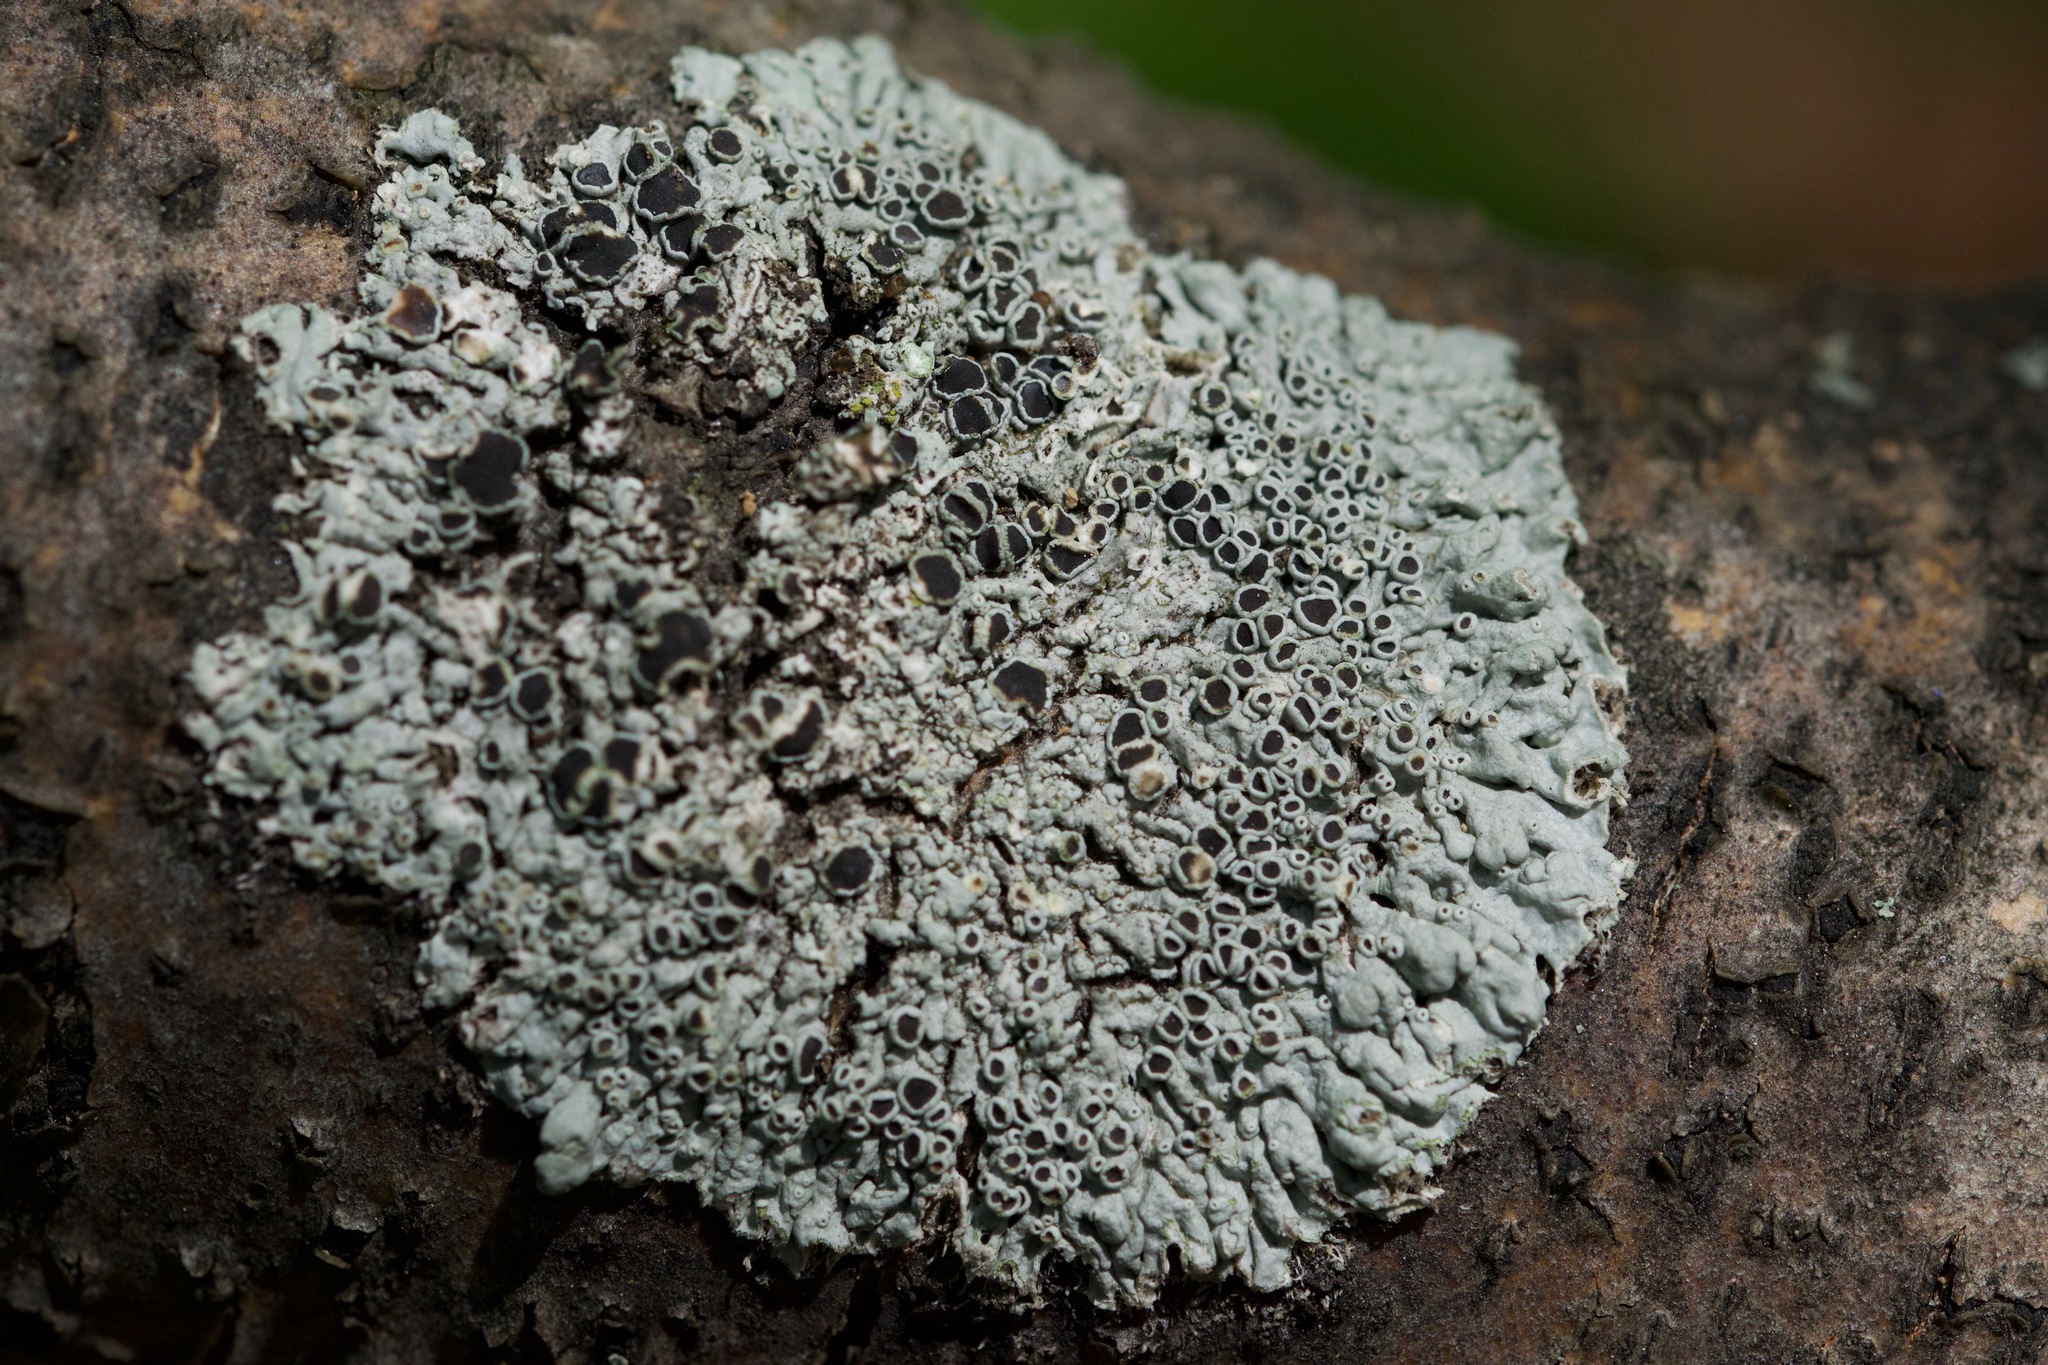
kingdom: Fungi
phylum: Ascomycota
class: Lecanoromycetes
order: Caliciales
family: Physciaceae
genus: Physcia
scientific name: Physcia aipolia
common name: Hoary rosette lichen
